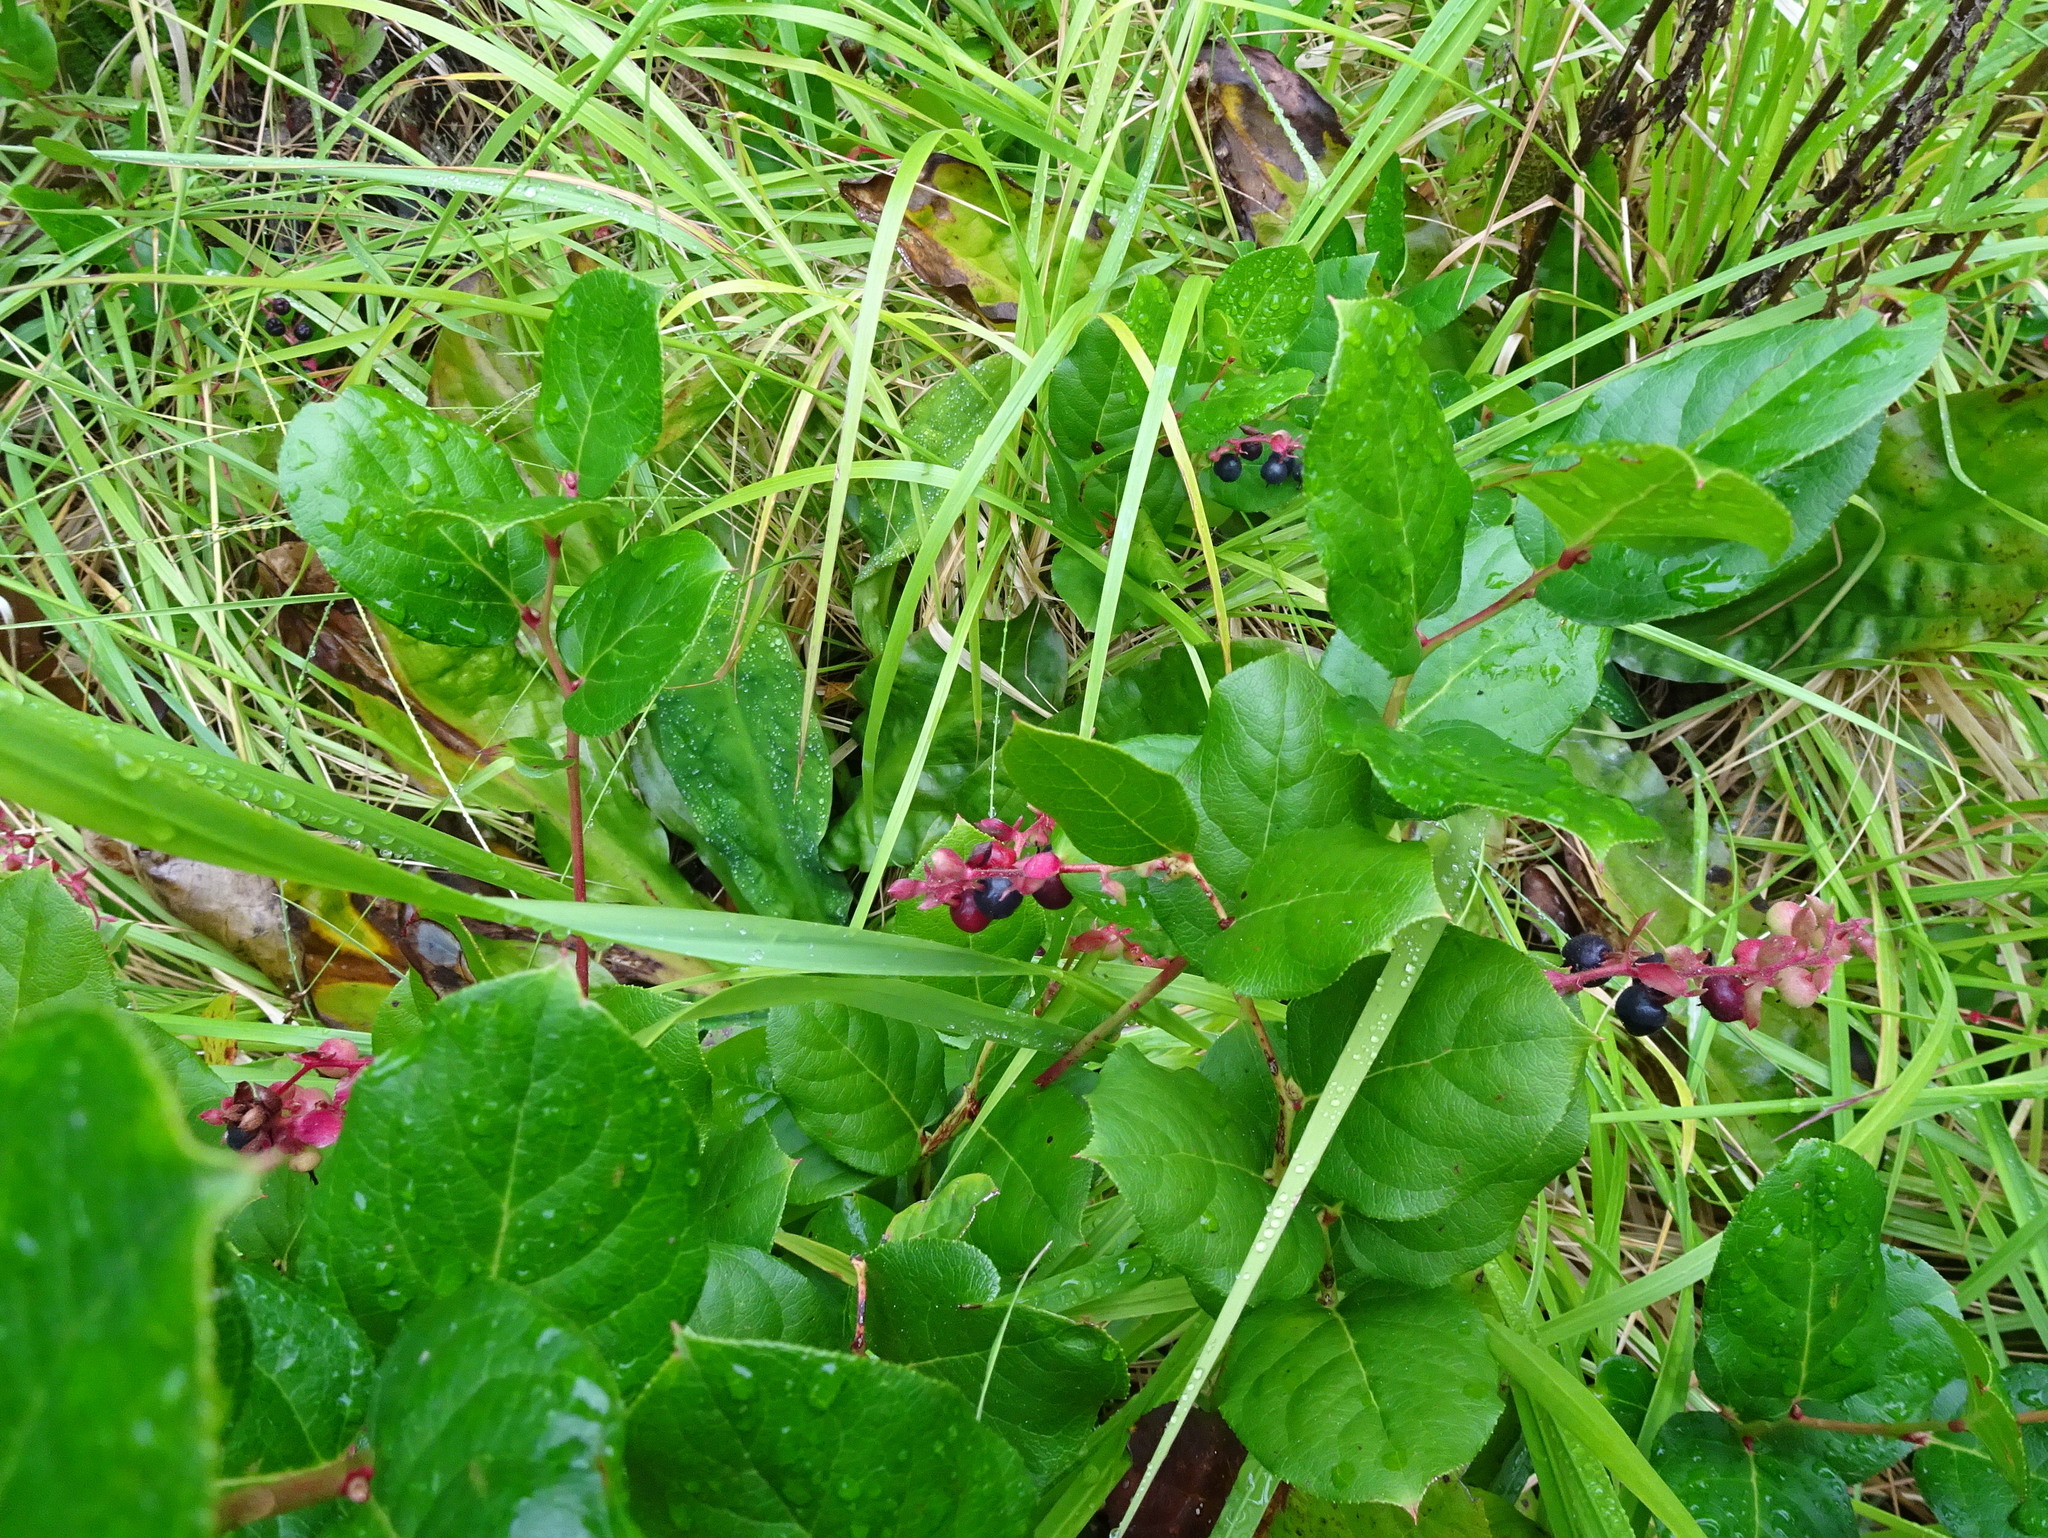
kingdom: Plantae
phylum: Tracheophyta
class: Magnoliopsida
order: Ericales
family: Ericaceae
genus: Gaultheria
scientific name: Gaultheria shallon
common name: Shallon
